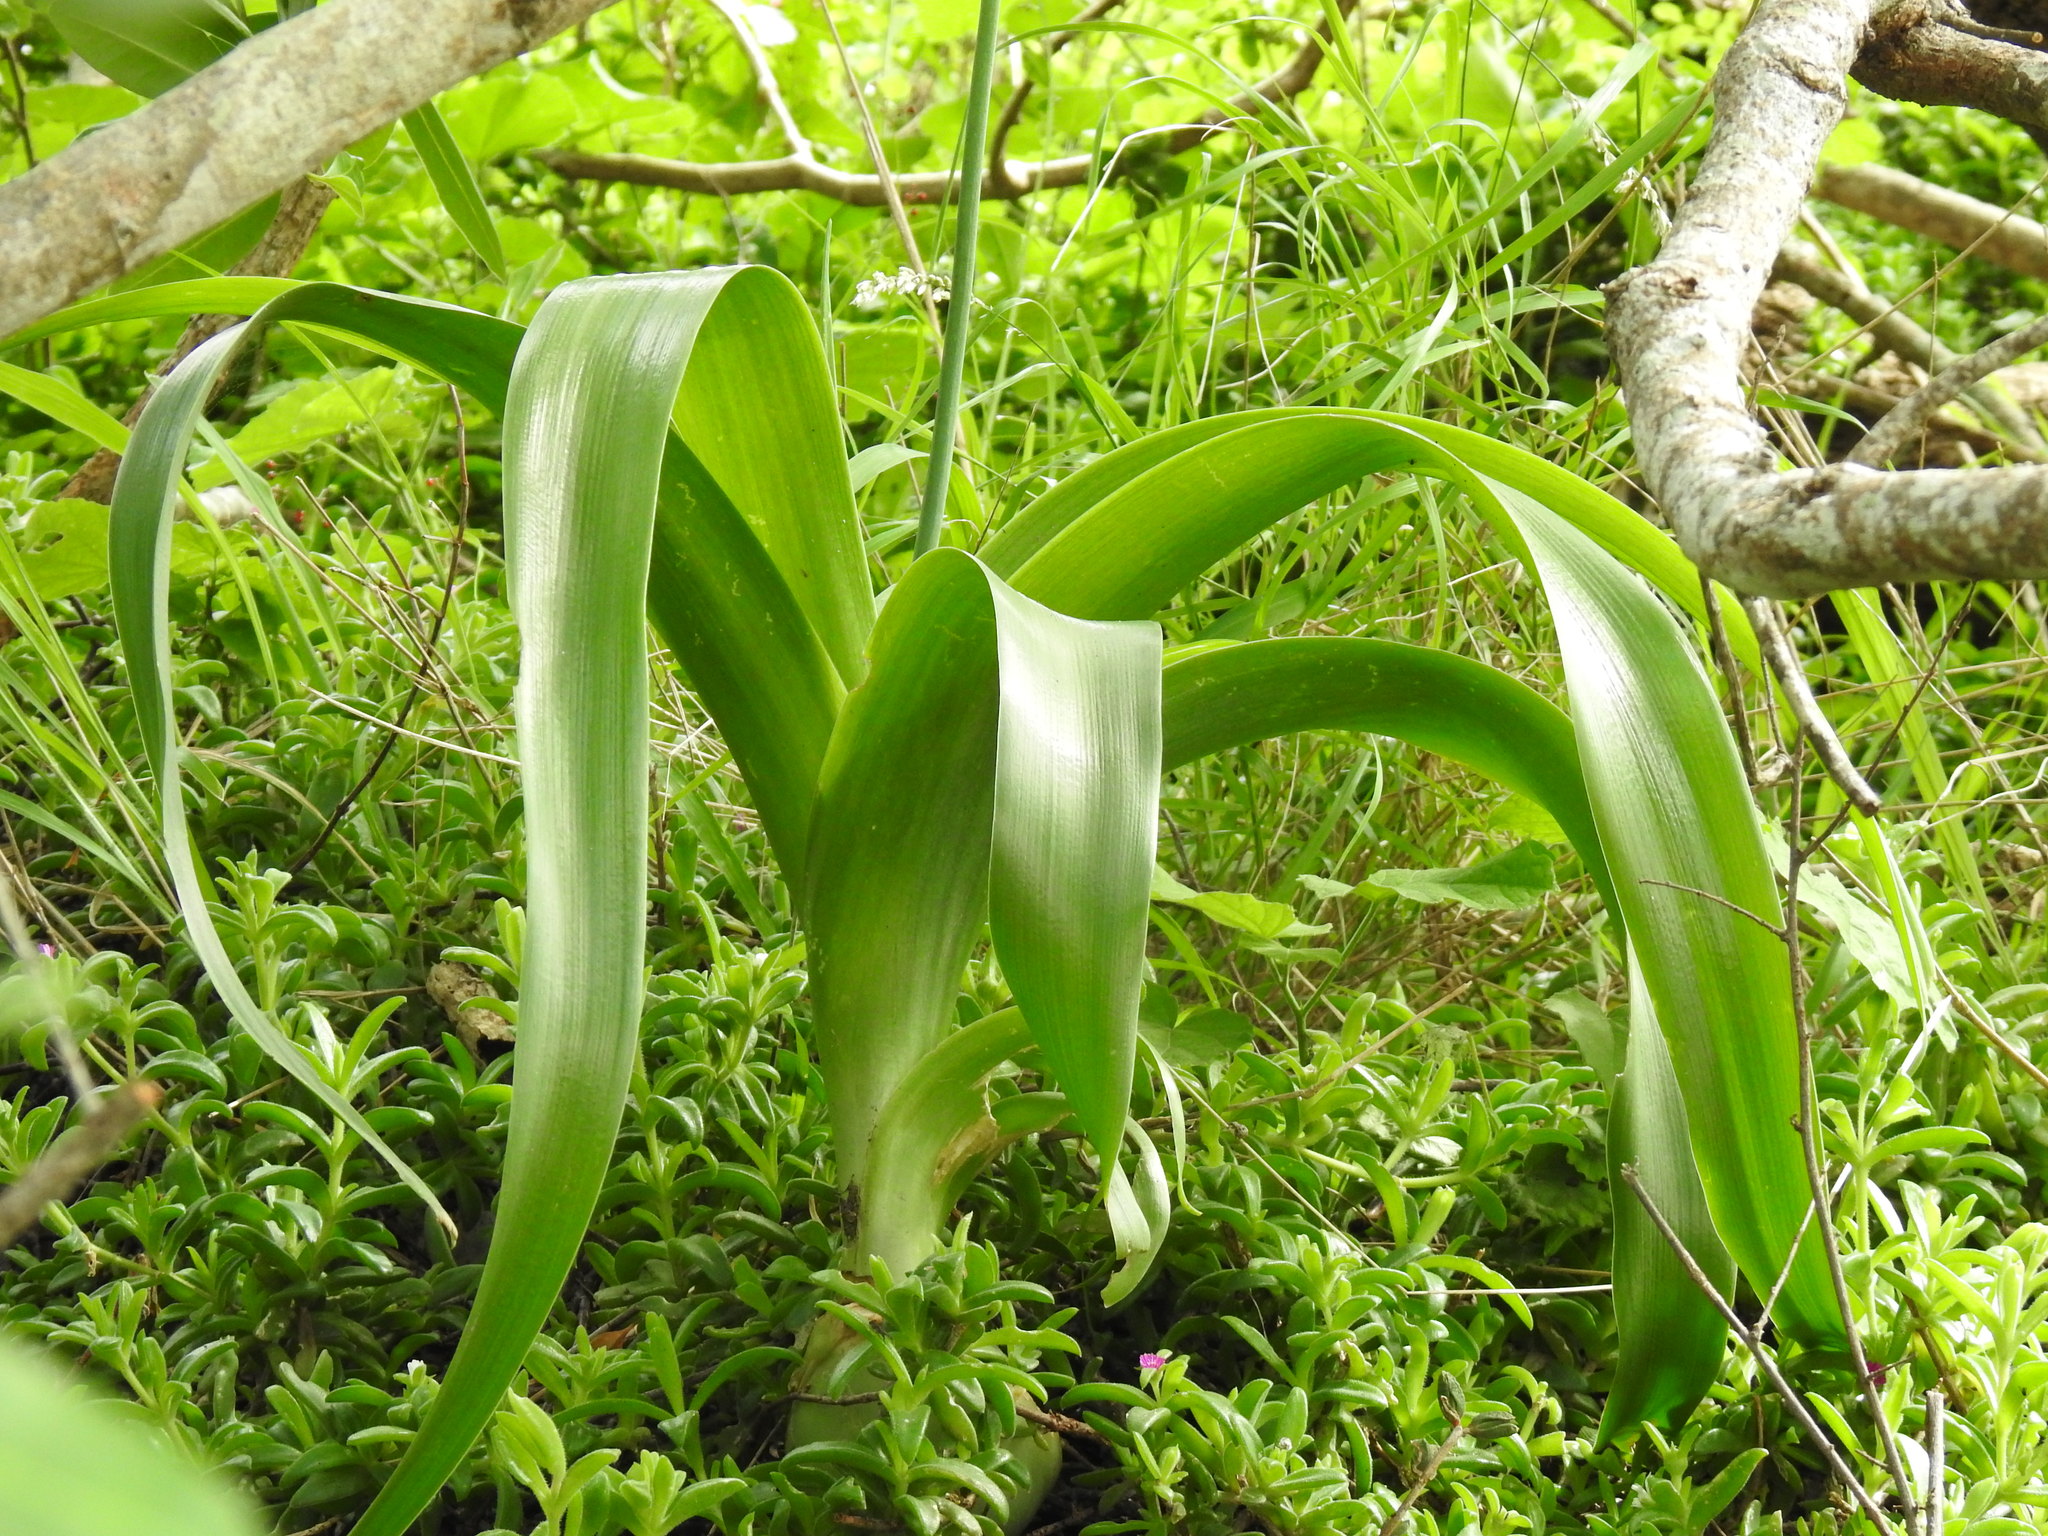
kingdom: Plantae
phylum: Tracheophyta
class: Liliopsida
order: Asparagales
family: Asparagaceae
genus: Albuca
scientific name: Albuca bracteata
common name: Sea-onion
